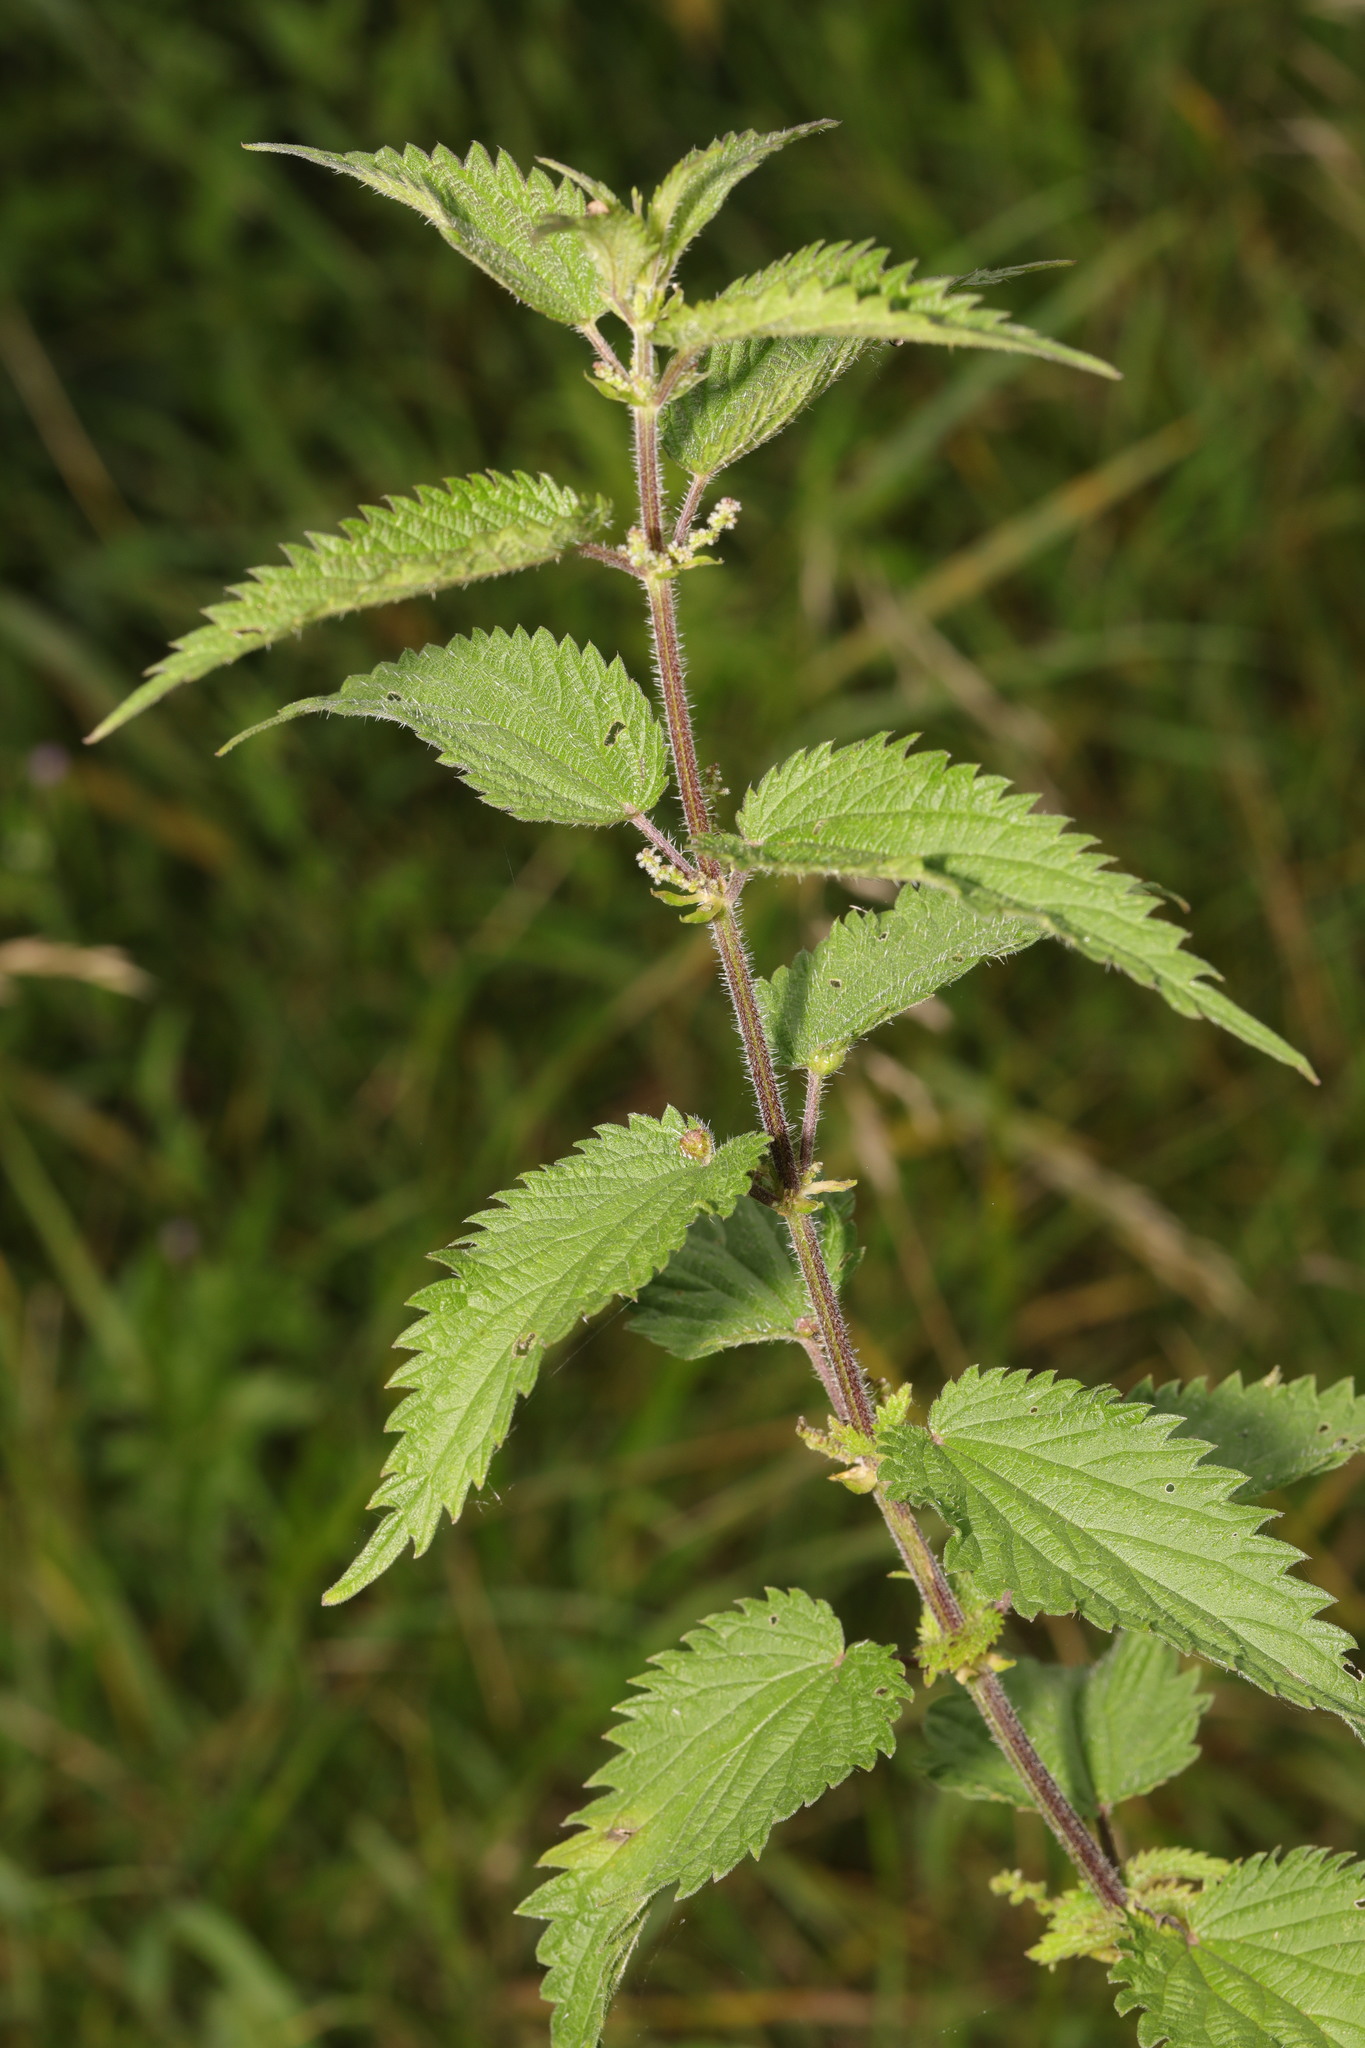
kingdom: Plantae
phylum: Tracheophyta
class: Magnoliopsida
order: Rosales
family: Urticaceae
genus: Urtica
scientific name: Urtica dioica
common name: Common nettle
